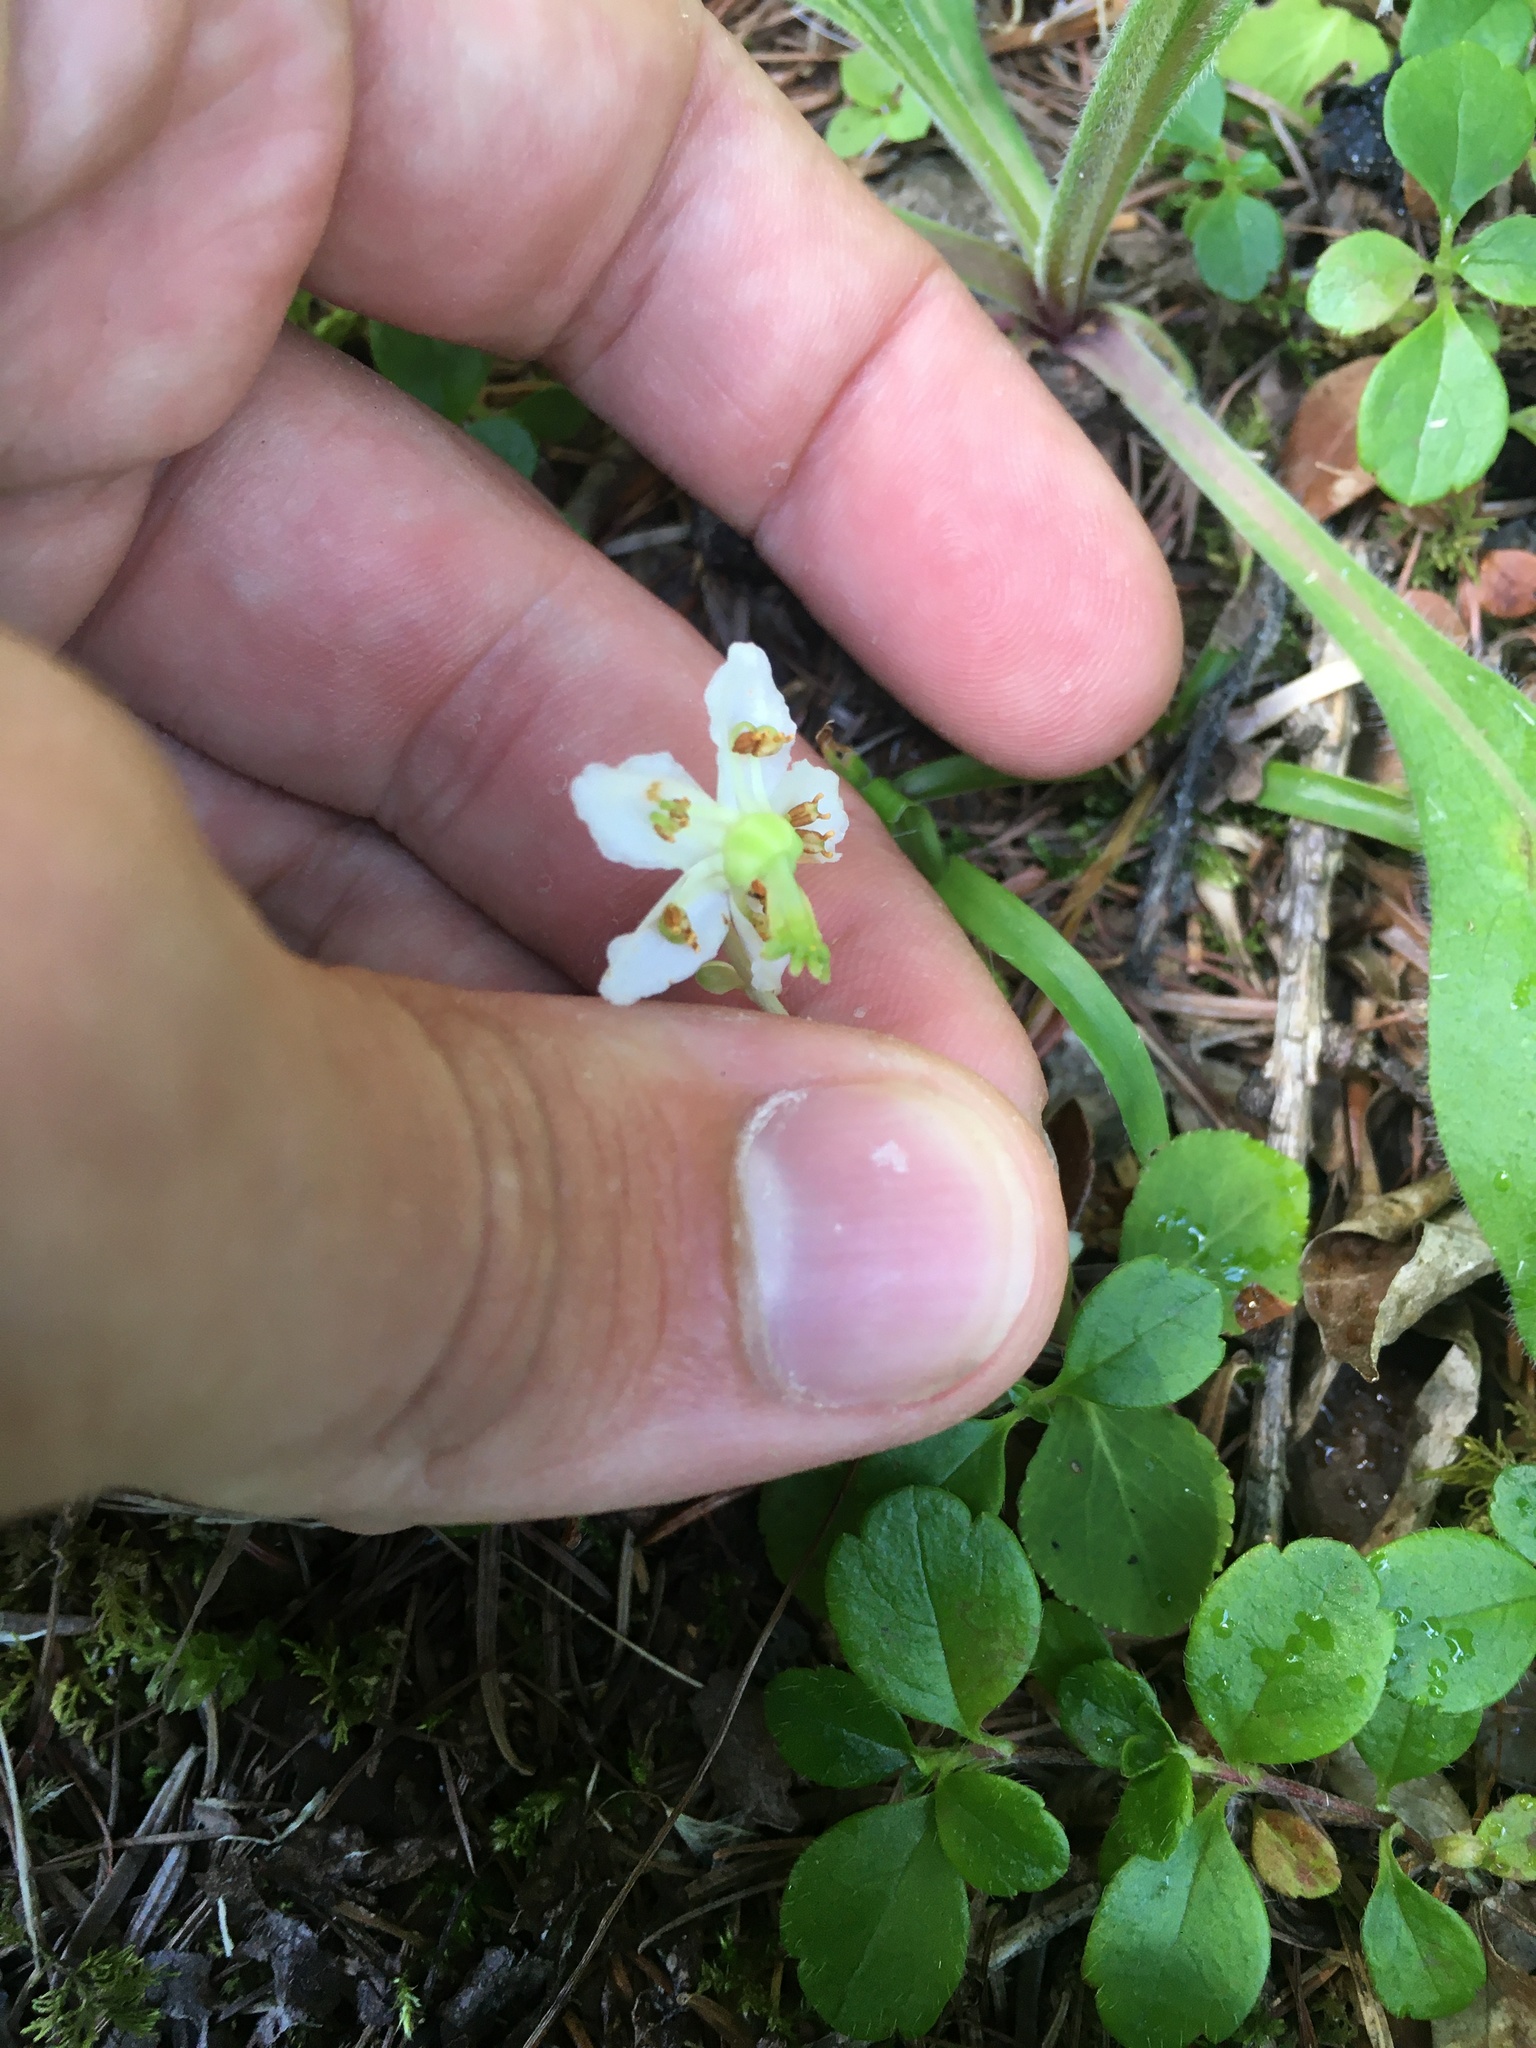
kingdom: Plantae
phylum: Tracheophyta
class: Magnoliopsida
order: Ericales
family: Ericaceae
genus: Moneses
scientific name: Moneses uniflora
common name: One-flowered wintergreen
